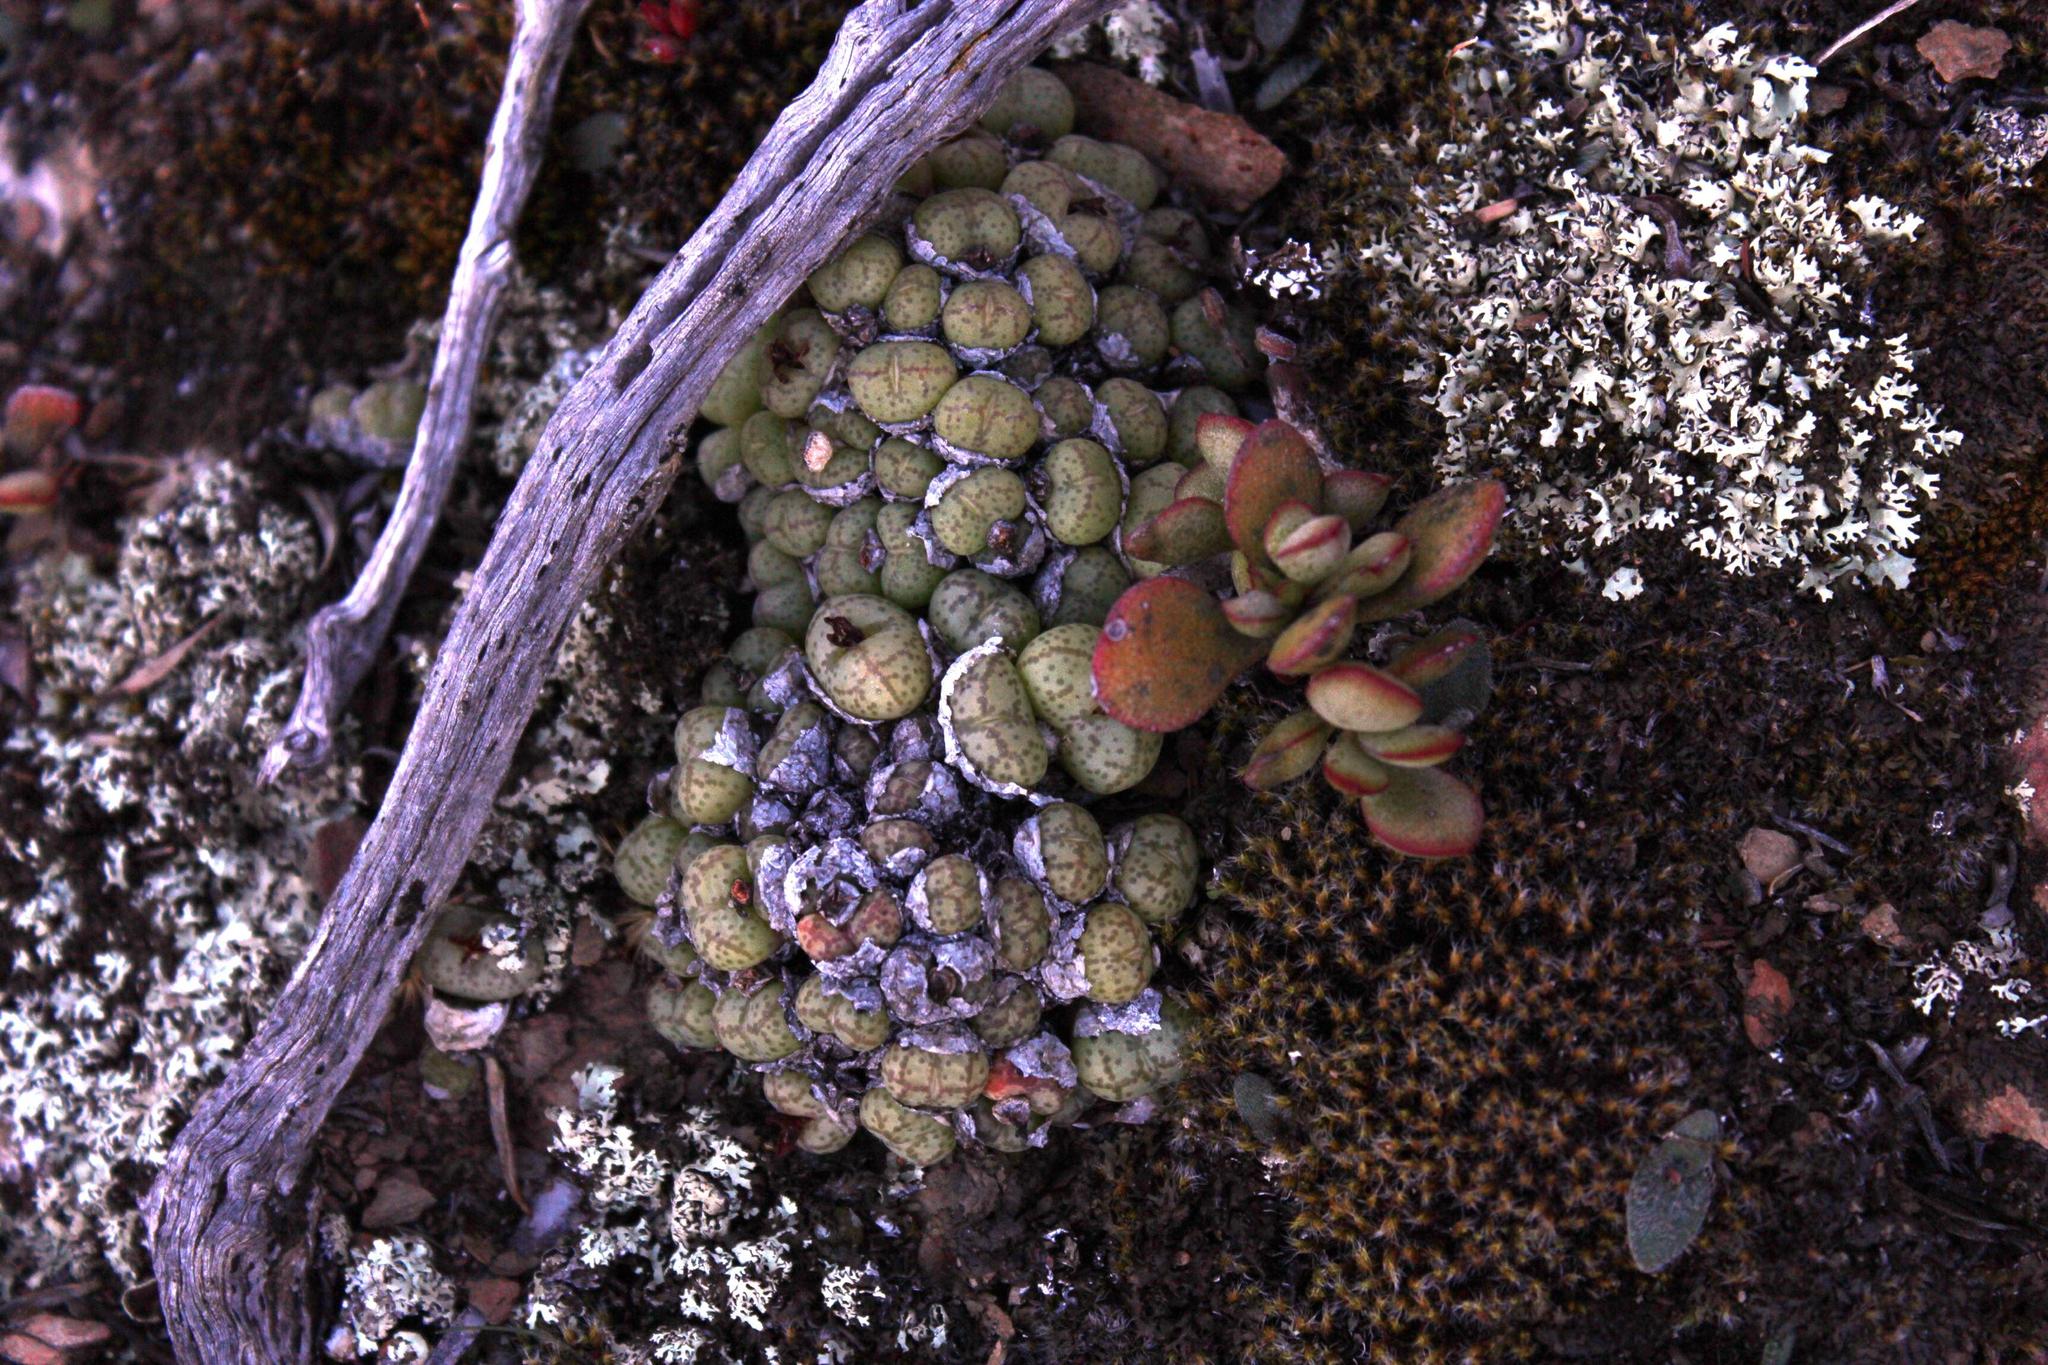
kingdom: Plantae
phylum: Tracheophyta
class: Magnoliopsida
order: Caryophyllales
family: Aizoaceae
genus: Conophytum
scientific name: Conophytum ficiforme
